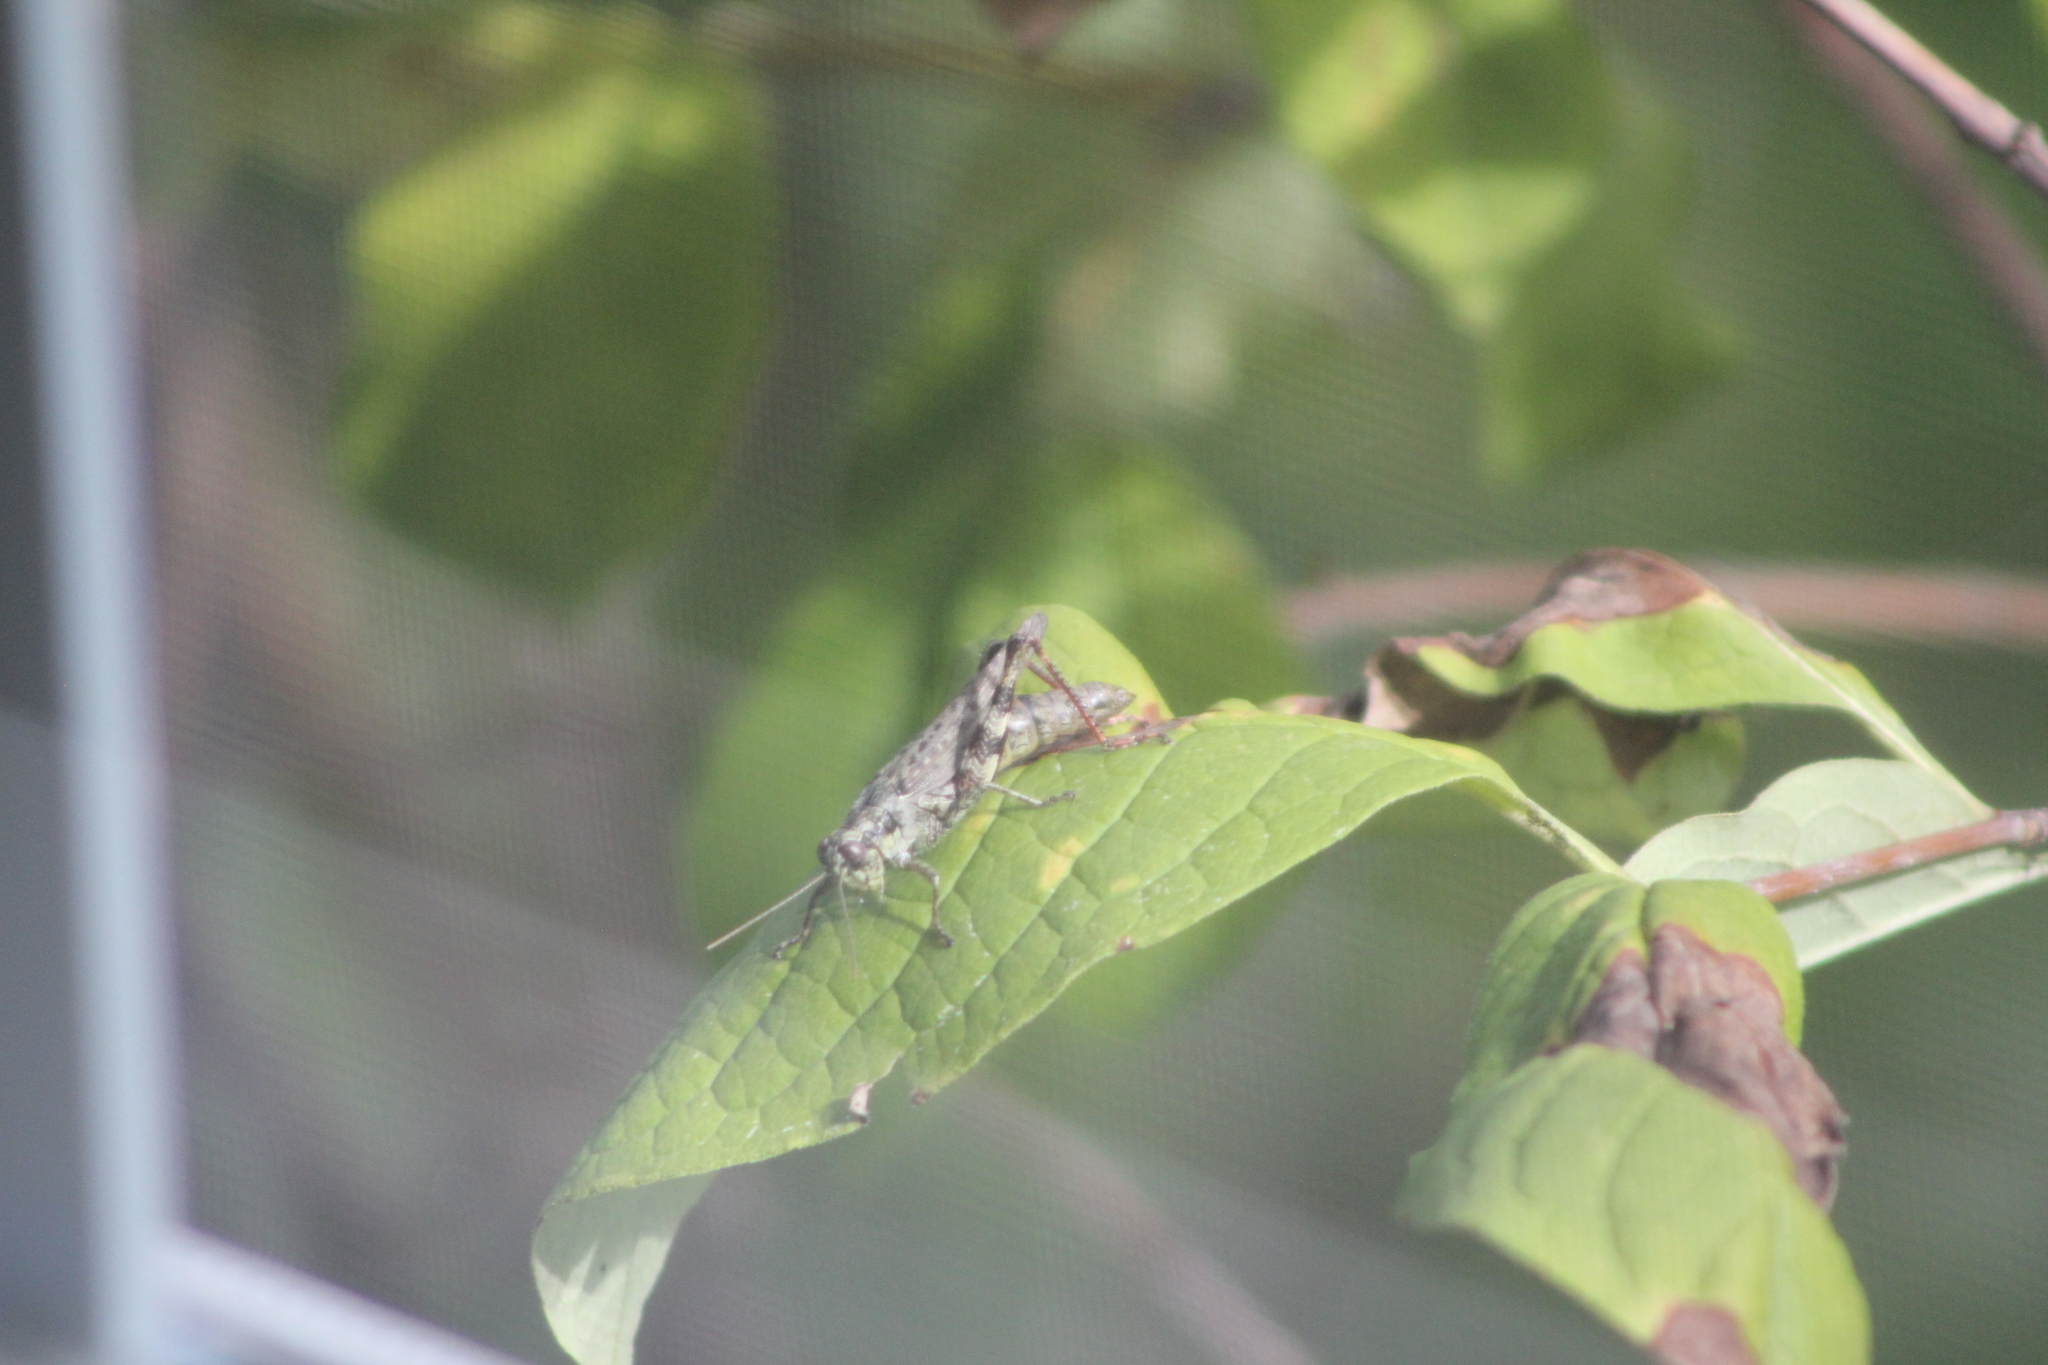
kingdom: Animalia
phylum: Arthropoda
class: Insecta
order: Orthoptera
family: Acrididae
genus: Melanoplus
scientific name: Melanoplus punctulatus
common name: Pine-tree spur-throat grasshopper
